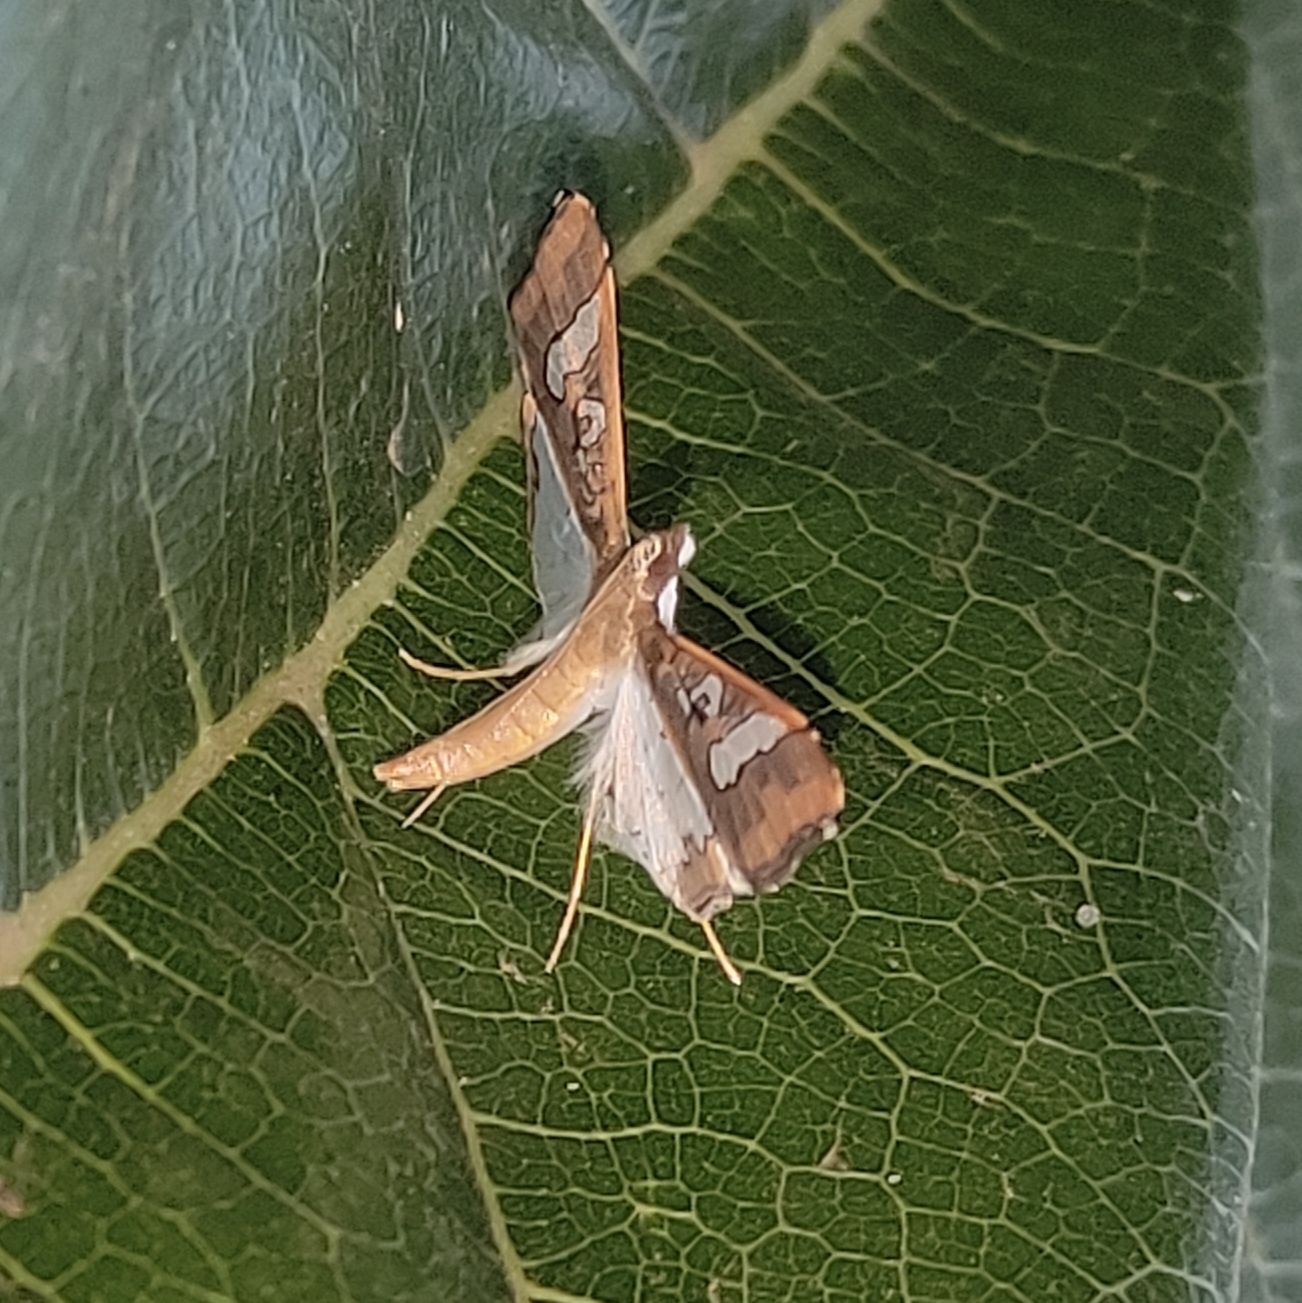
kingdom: Animalia
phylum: Arthropoda
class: Insecta
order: Lepidoptera
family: Crambidae
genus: Maruca
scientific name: Maruca vitrata
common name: Maruca pod borer
